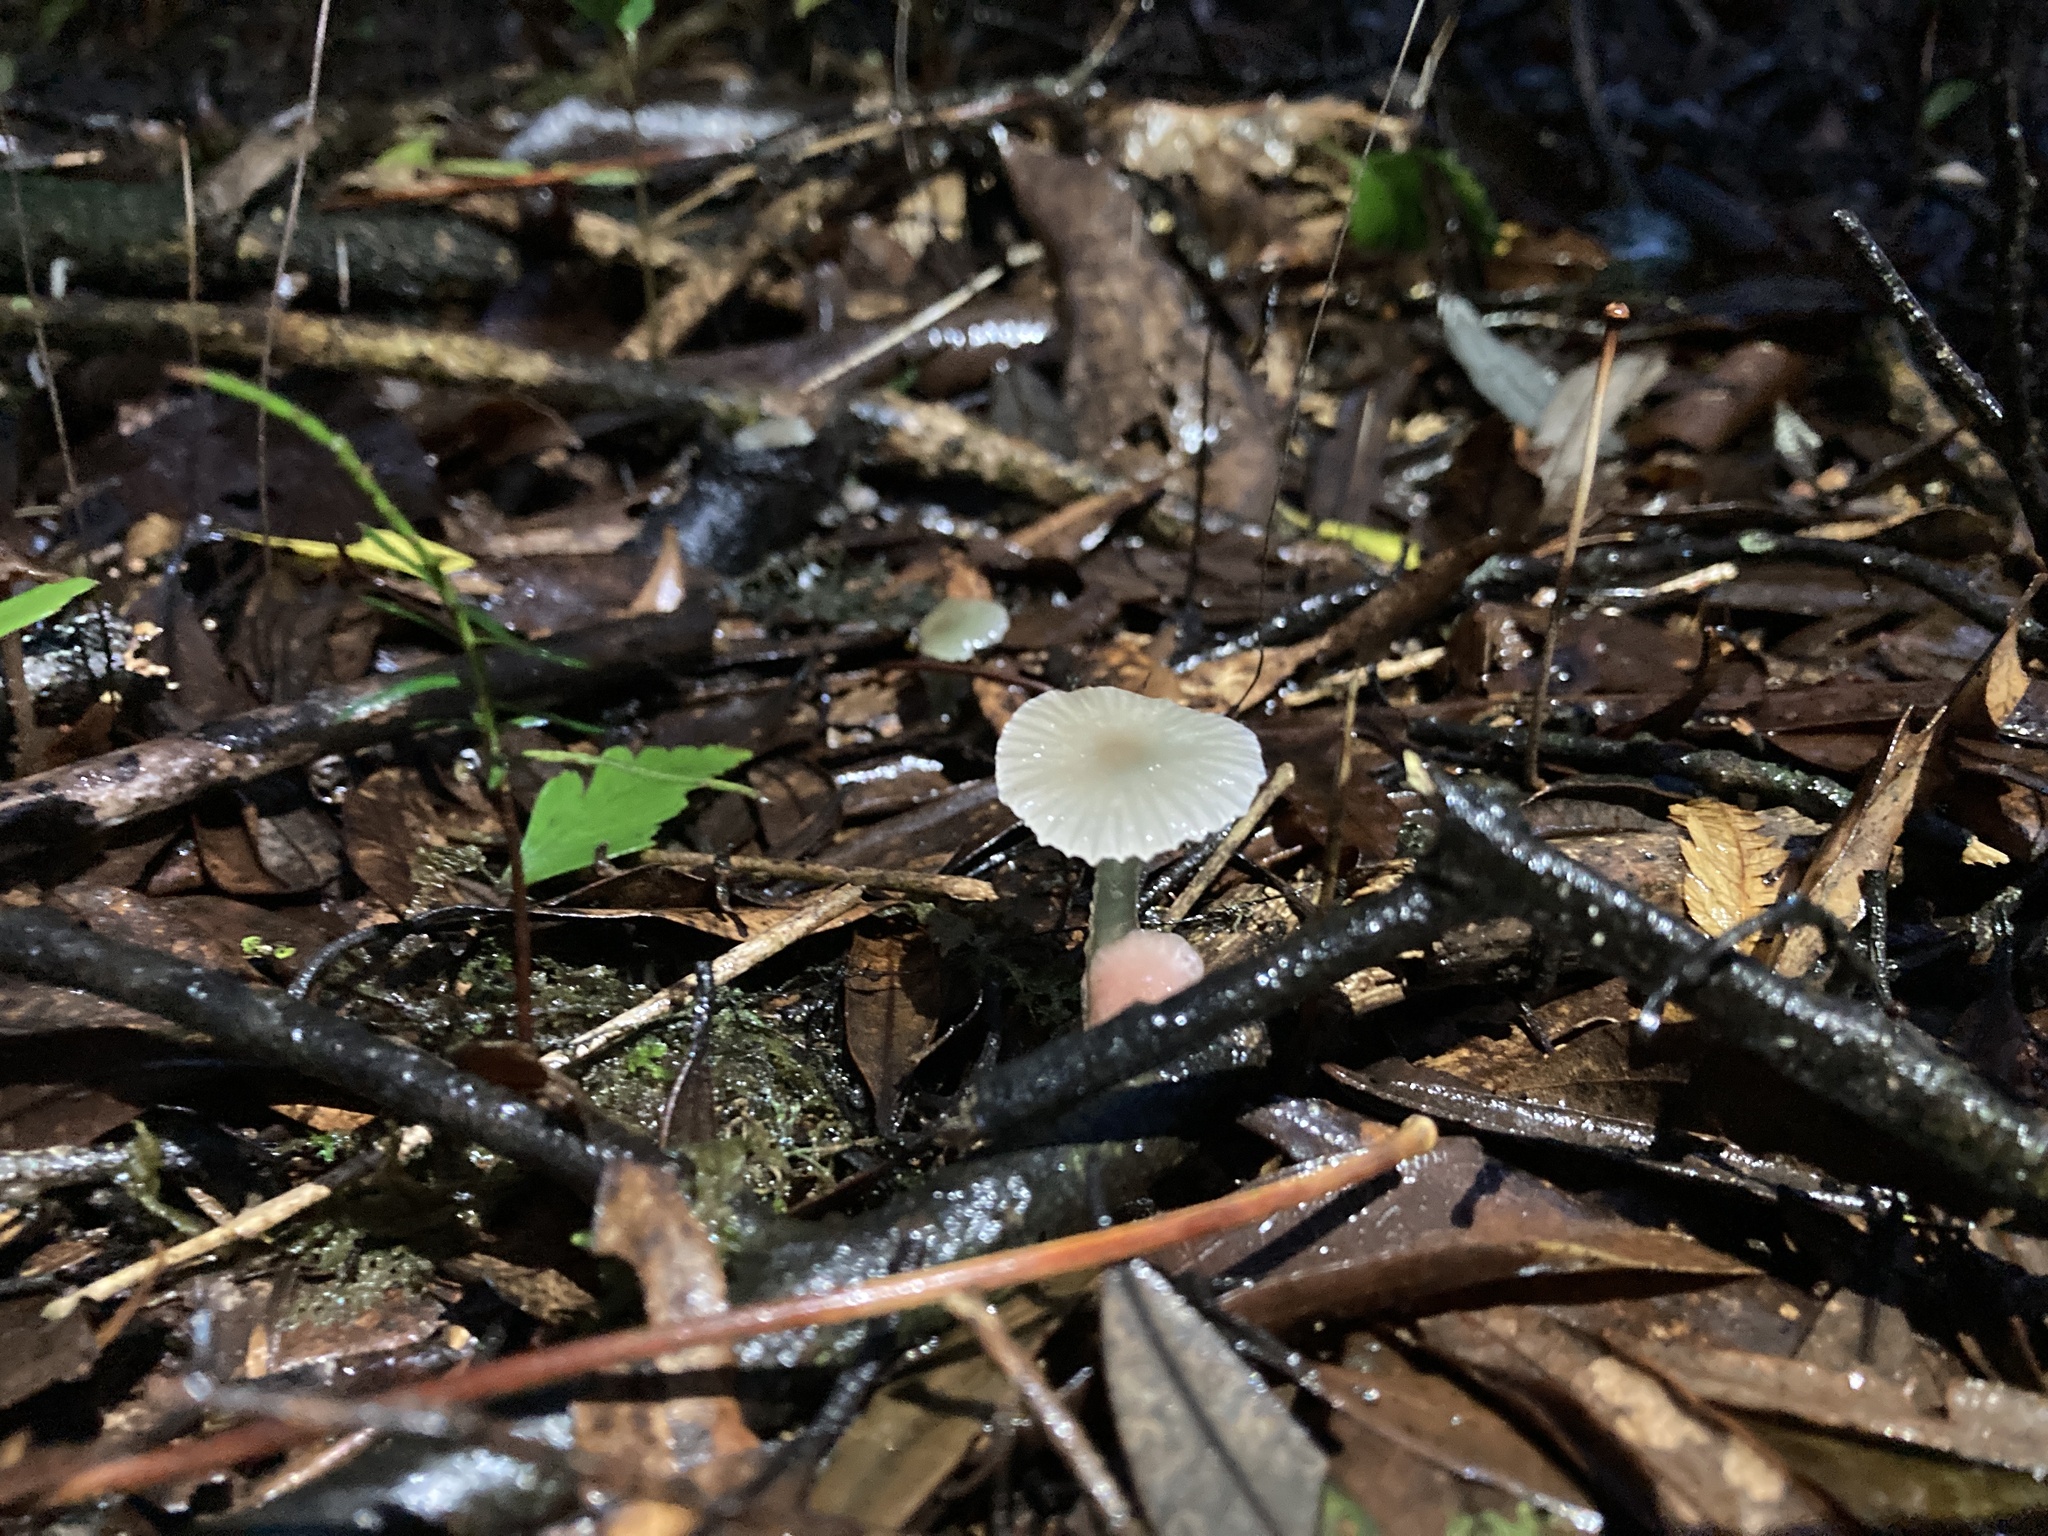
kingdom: Fungi
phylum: Basidiomycota
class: Agaricomycetes
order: Agaricales
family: Hygrophoraceae
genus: Gliophorus
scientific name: Gliophorus lilacipes
